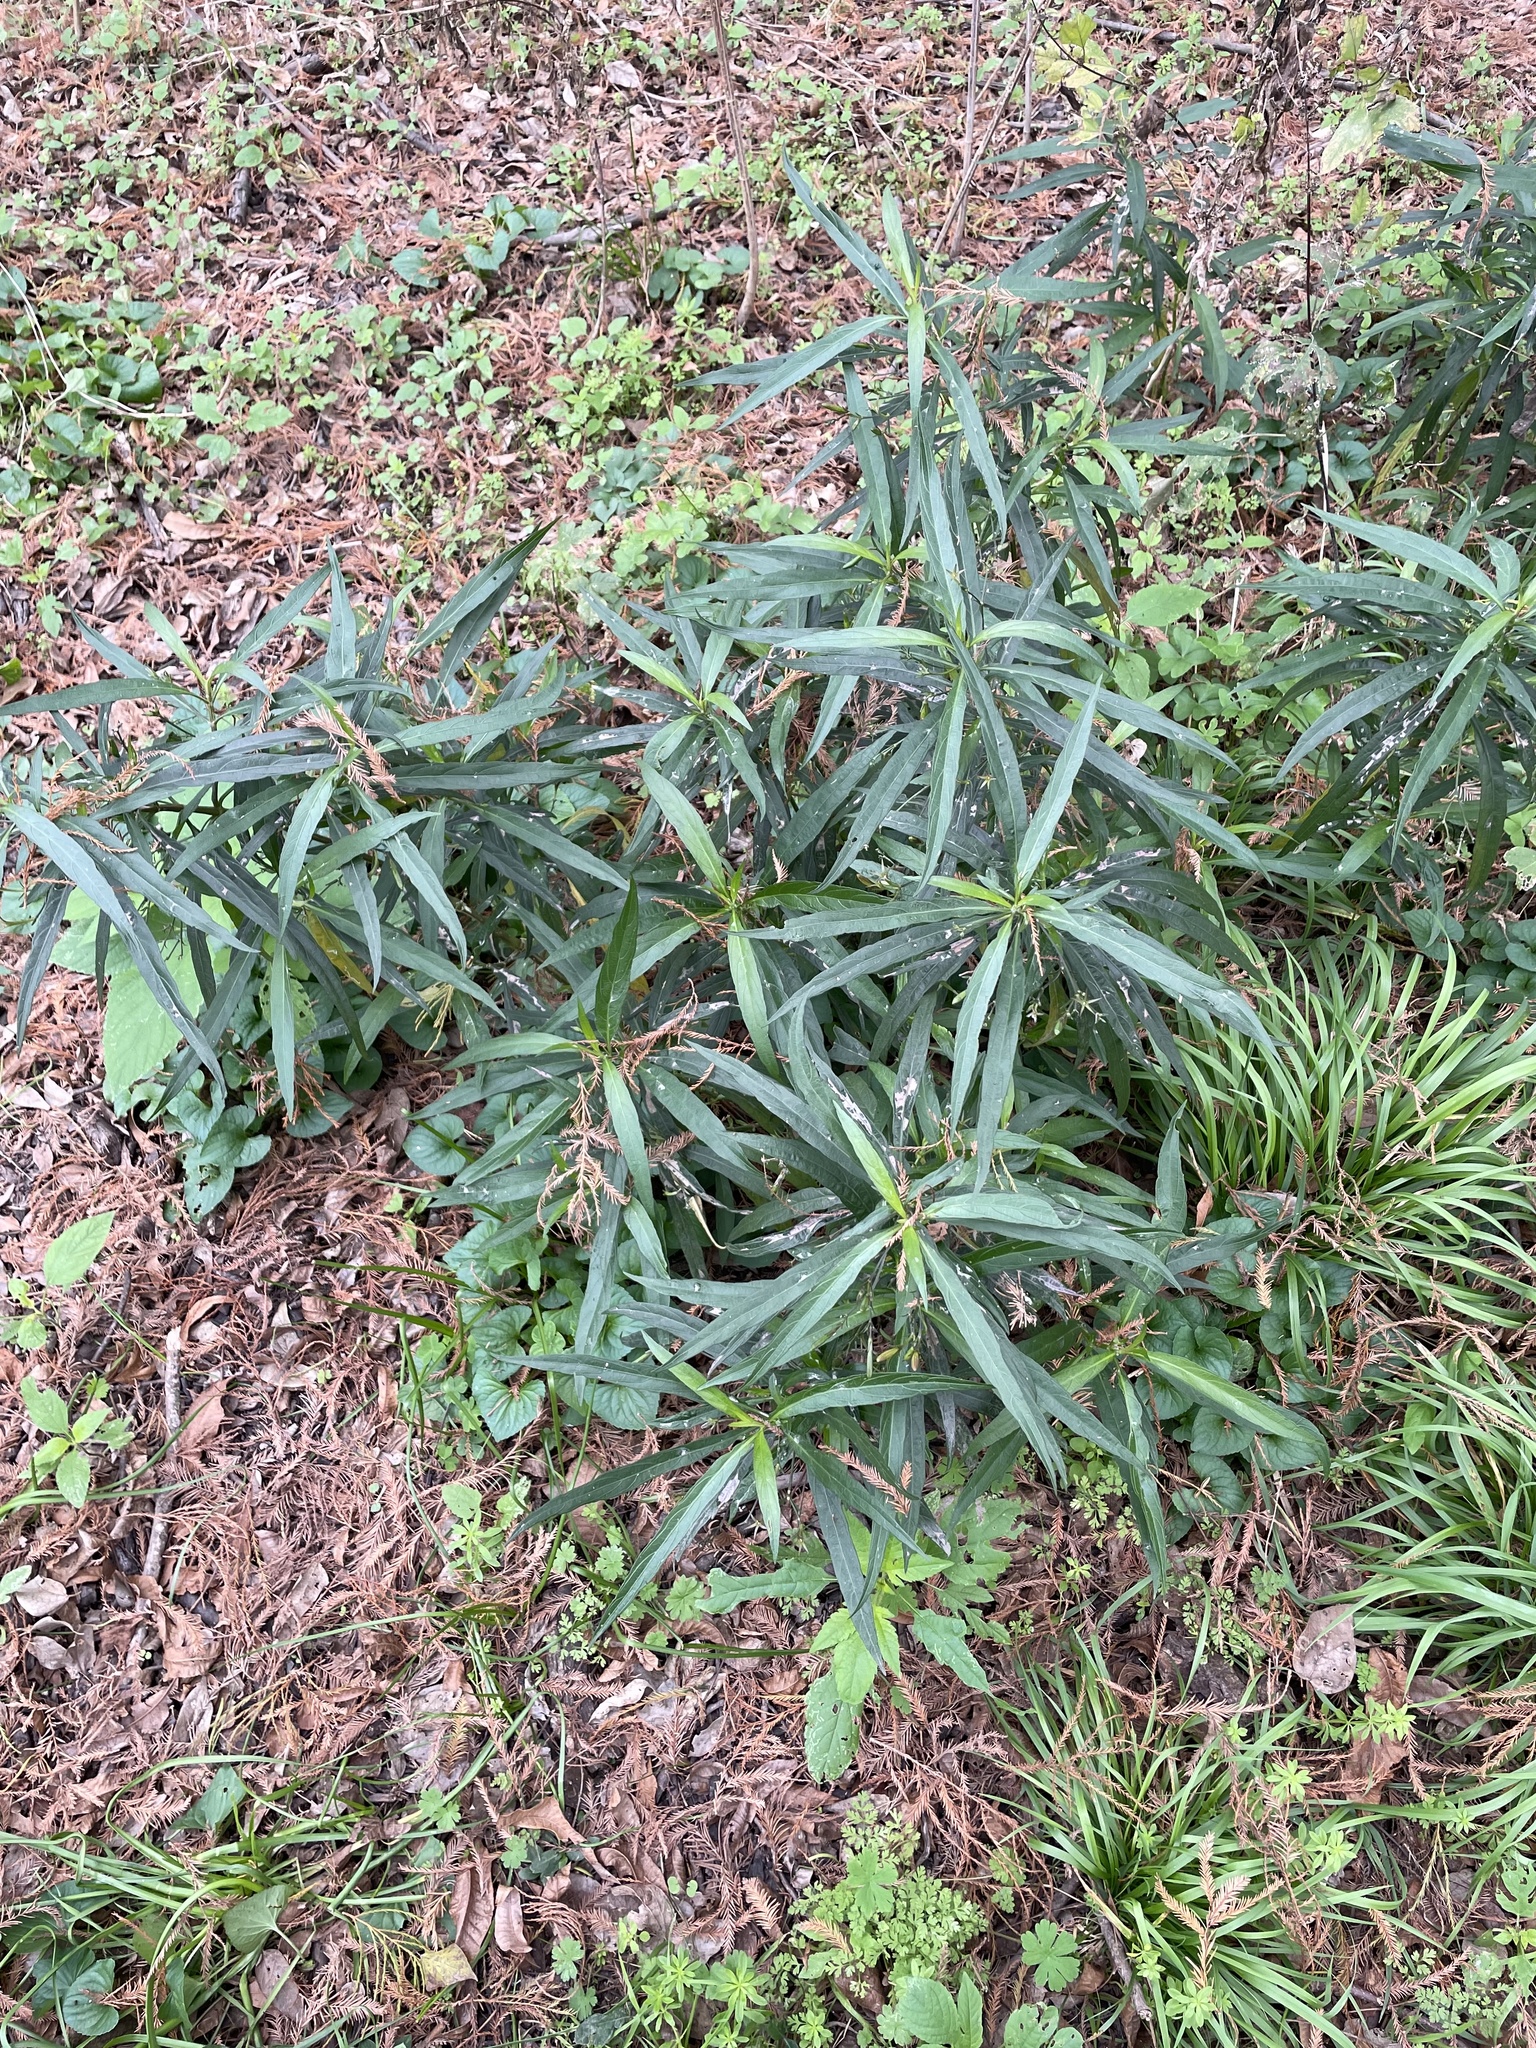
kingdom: Plantae
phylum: Tracheophyta
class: Magnoliopsida
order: Lamiales
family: Acanthaceae
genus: Ruellia
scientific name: Ruellia simplex
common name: Softseed wild petunia
